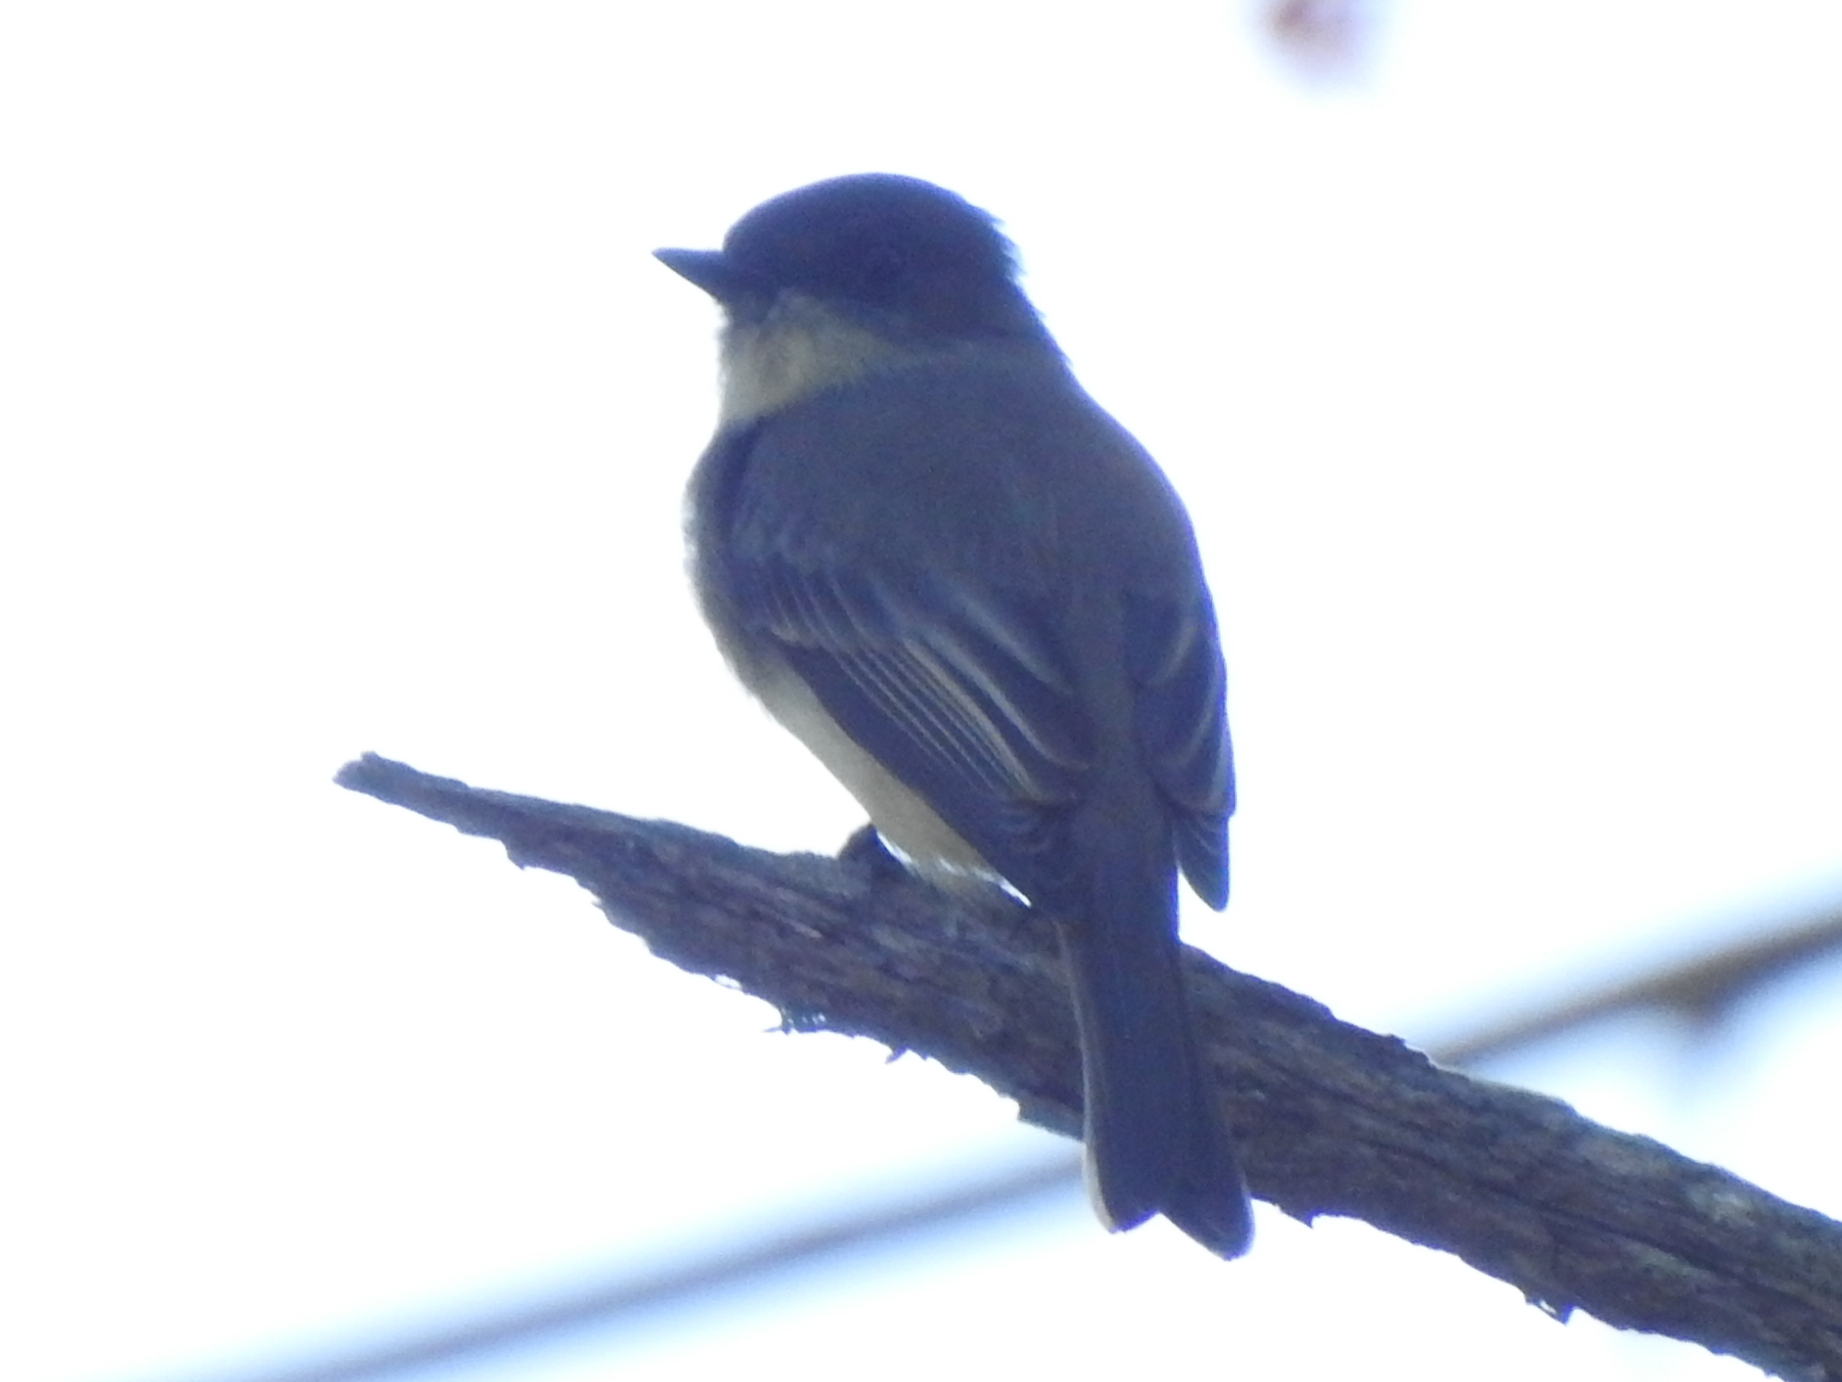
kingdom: Animalia
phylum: Chordata
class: Aves
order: Passeriformes
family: Tyrannidae
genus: Sayornis
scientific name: Sayornis phoebe
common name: Eastern phoebe
